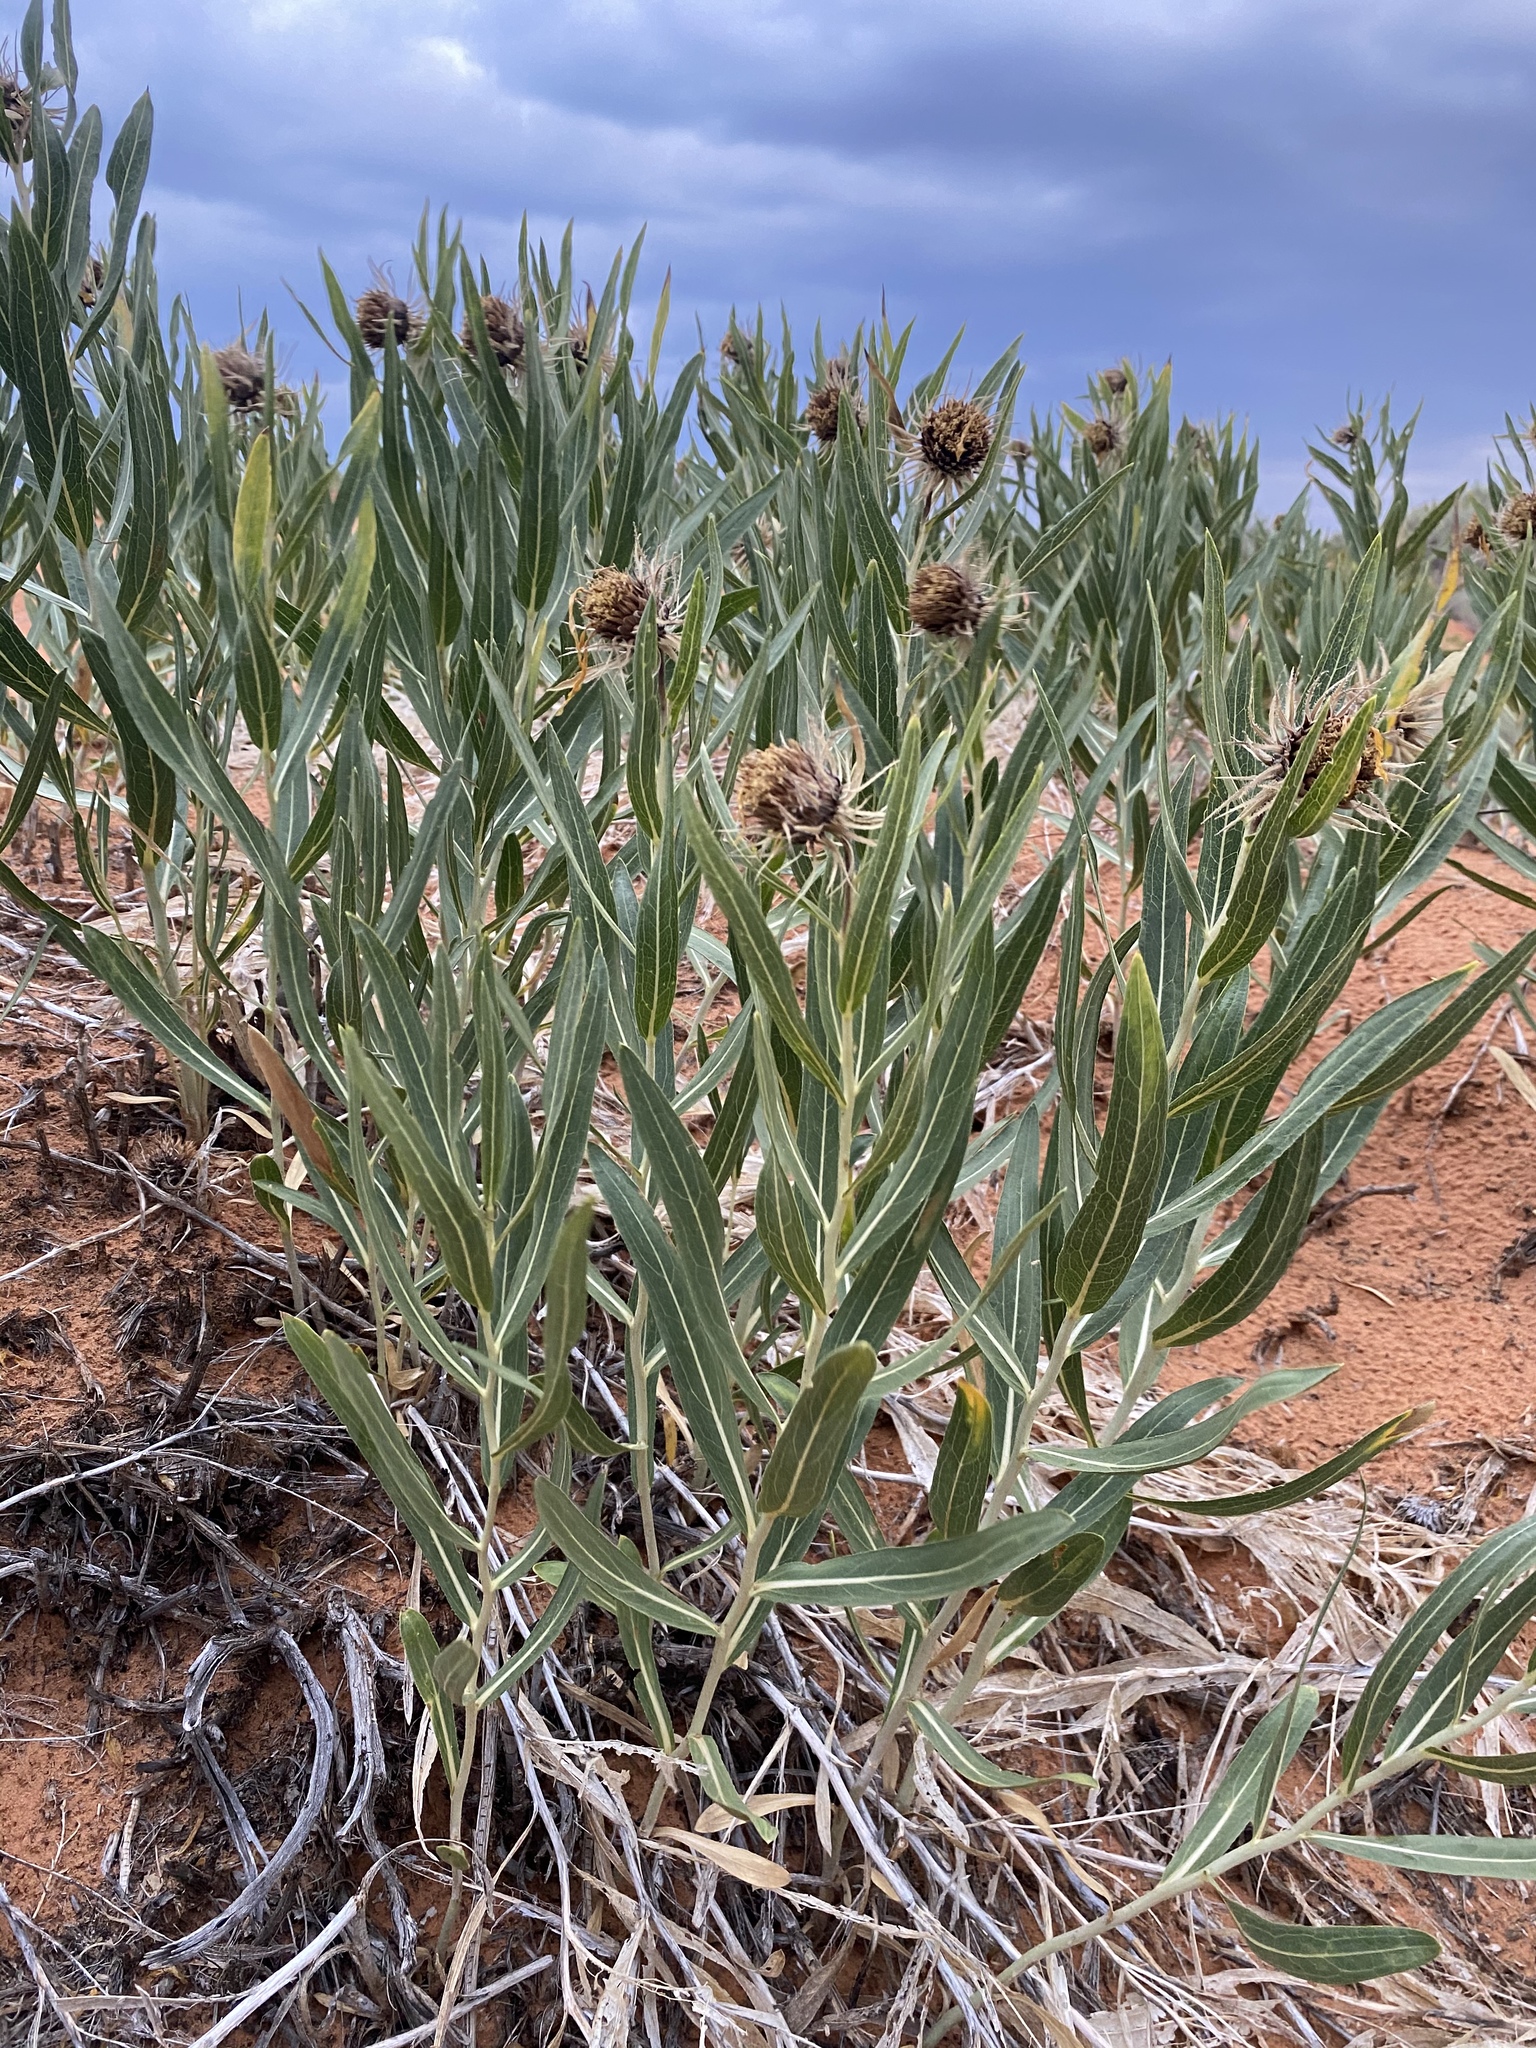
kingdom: Plantae
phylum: Tracheophyta
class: Magnoliopsida
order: Asterales
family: Asteraceae
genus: Scabrethia
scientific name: Scabrethia scabra
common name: Rough mules's-ears
